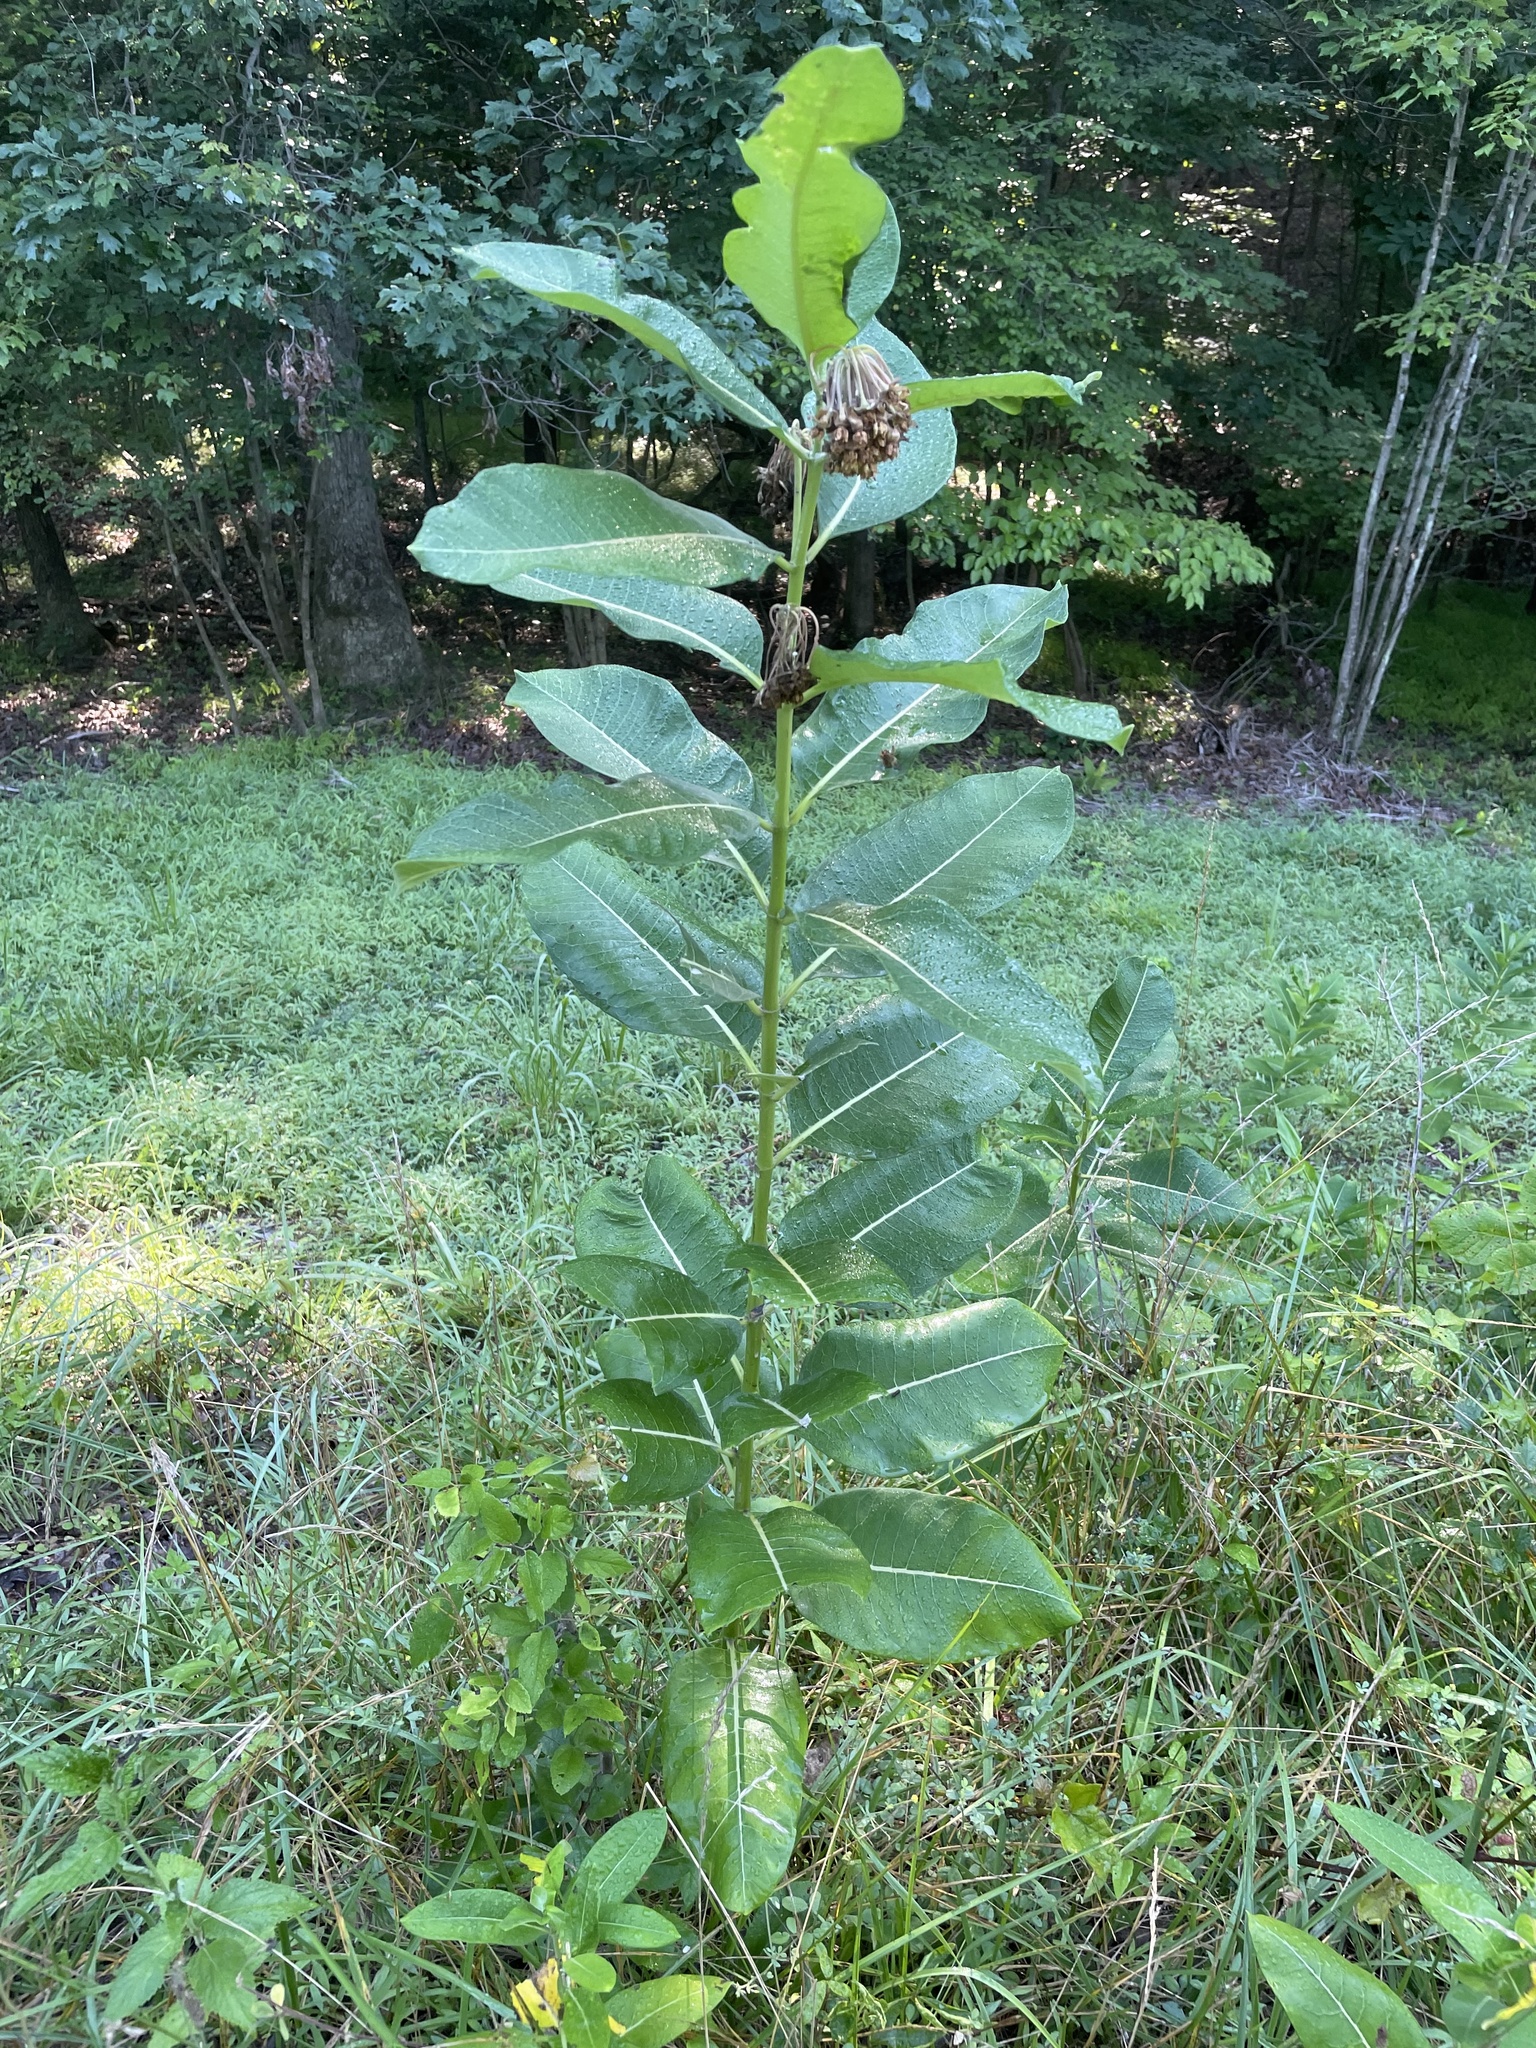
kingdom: Plantae
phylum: Tracheophyta
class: Magnoliopsida
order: Gentianales
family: Apocynaceae
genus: Asclepias
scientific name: Asclepias syriaca
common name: Common milkweed
